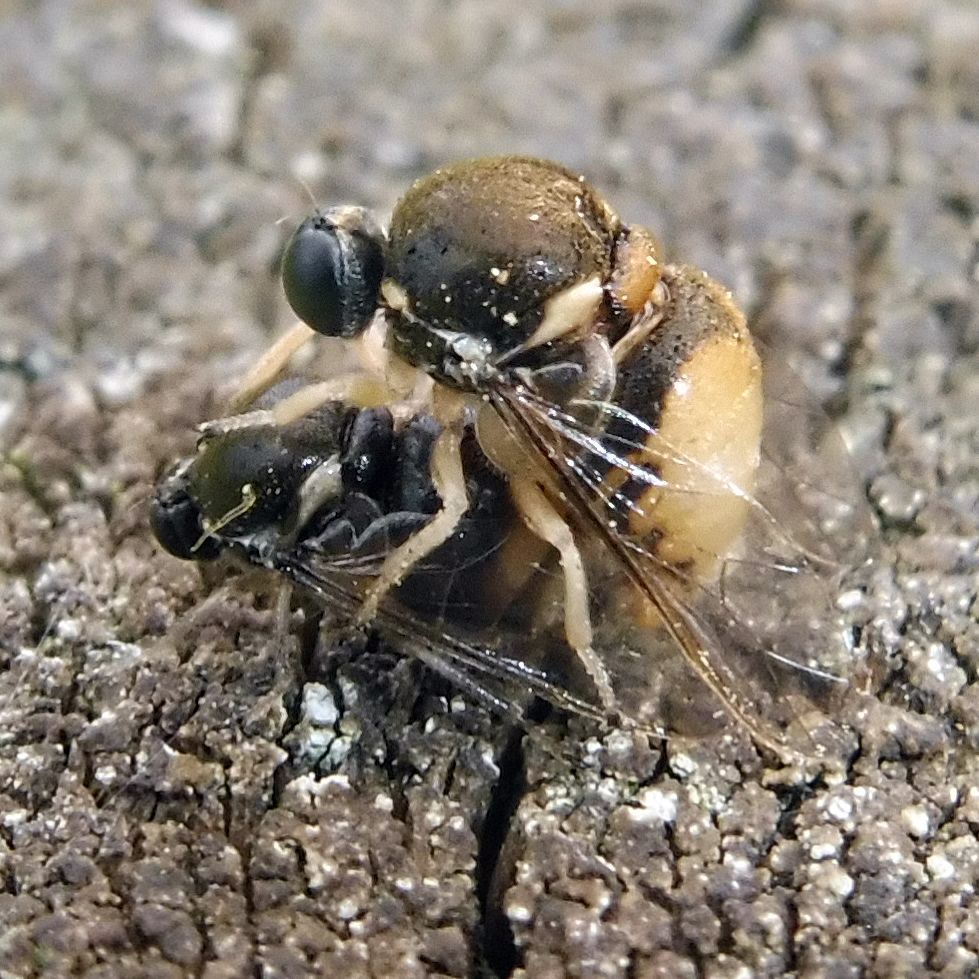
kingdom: Animalia
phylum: Arthropoda
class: Insecta
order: Diptera
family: Acroceridae
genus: Acrocera
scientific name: Acrocera orbicula
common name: Top-horned hunchback
